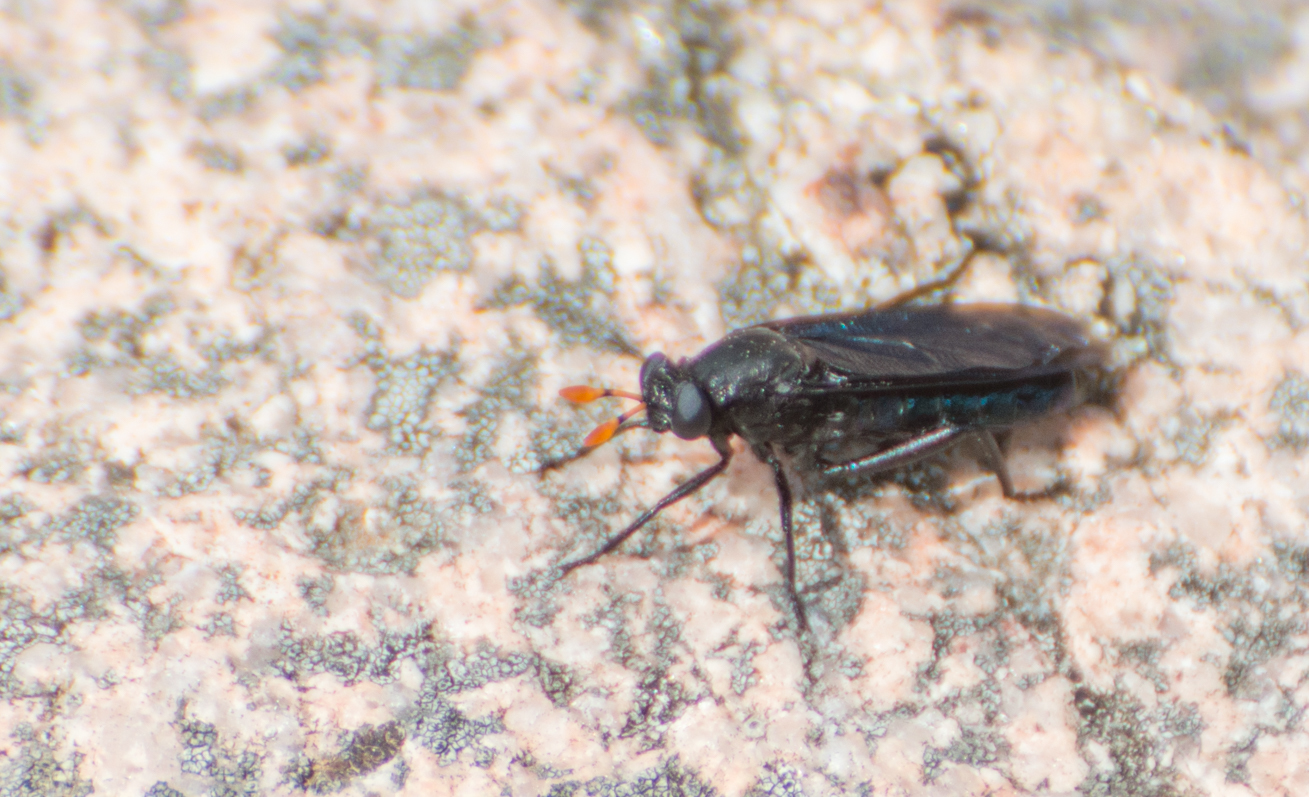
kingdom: Animalia
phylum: Arthropoda
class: Insecta
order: Diptera
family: Mydidae
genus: Paramydas
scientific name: Paramydas igniticornis
